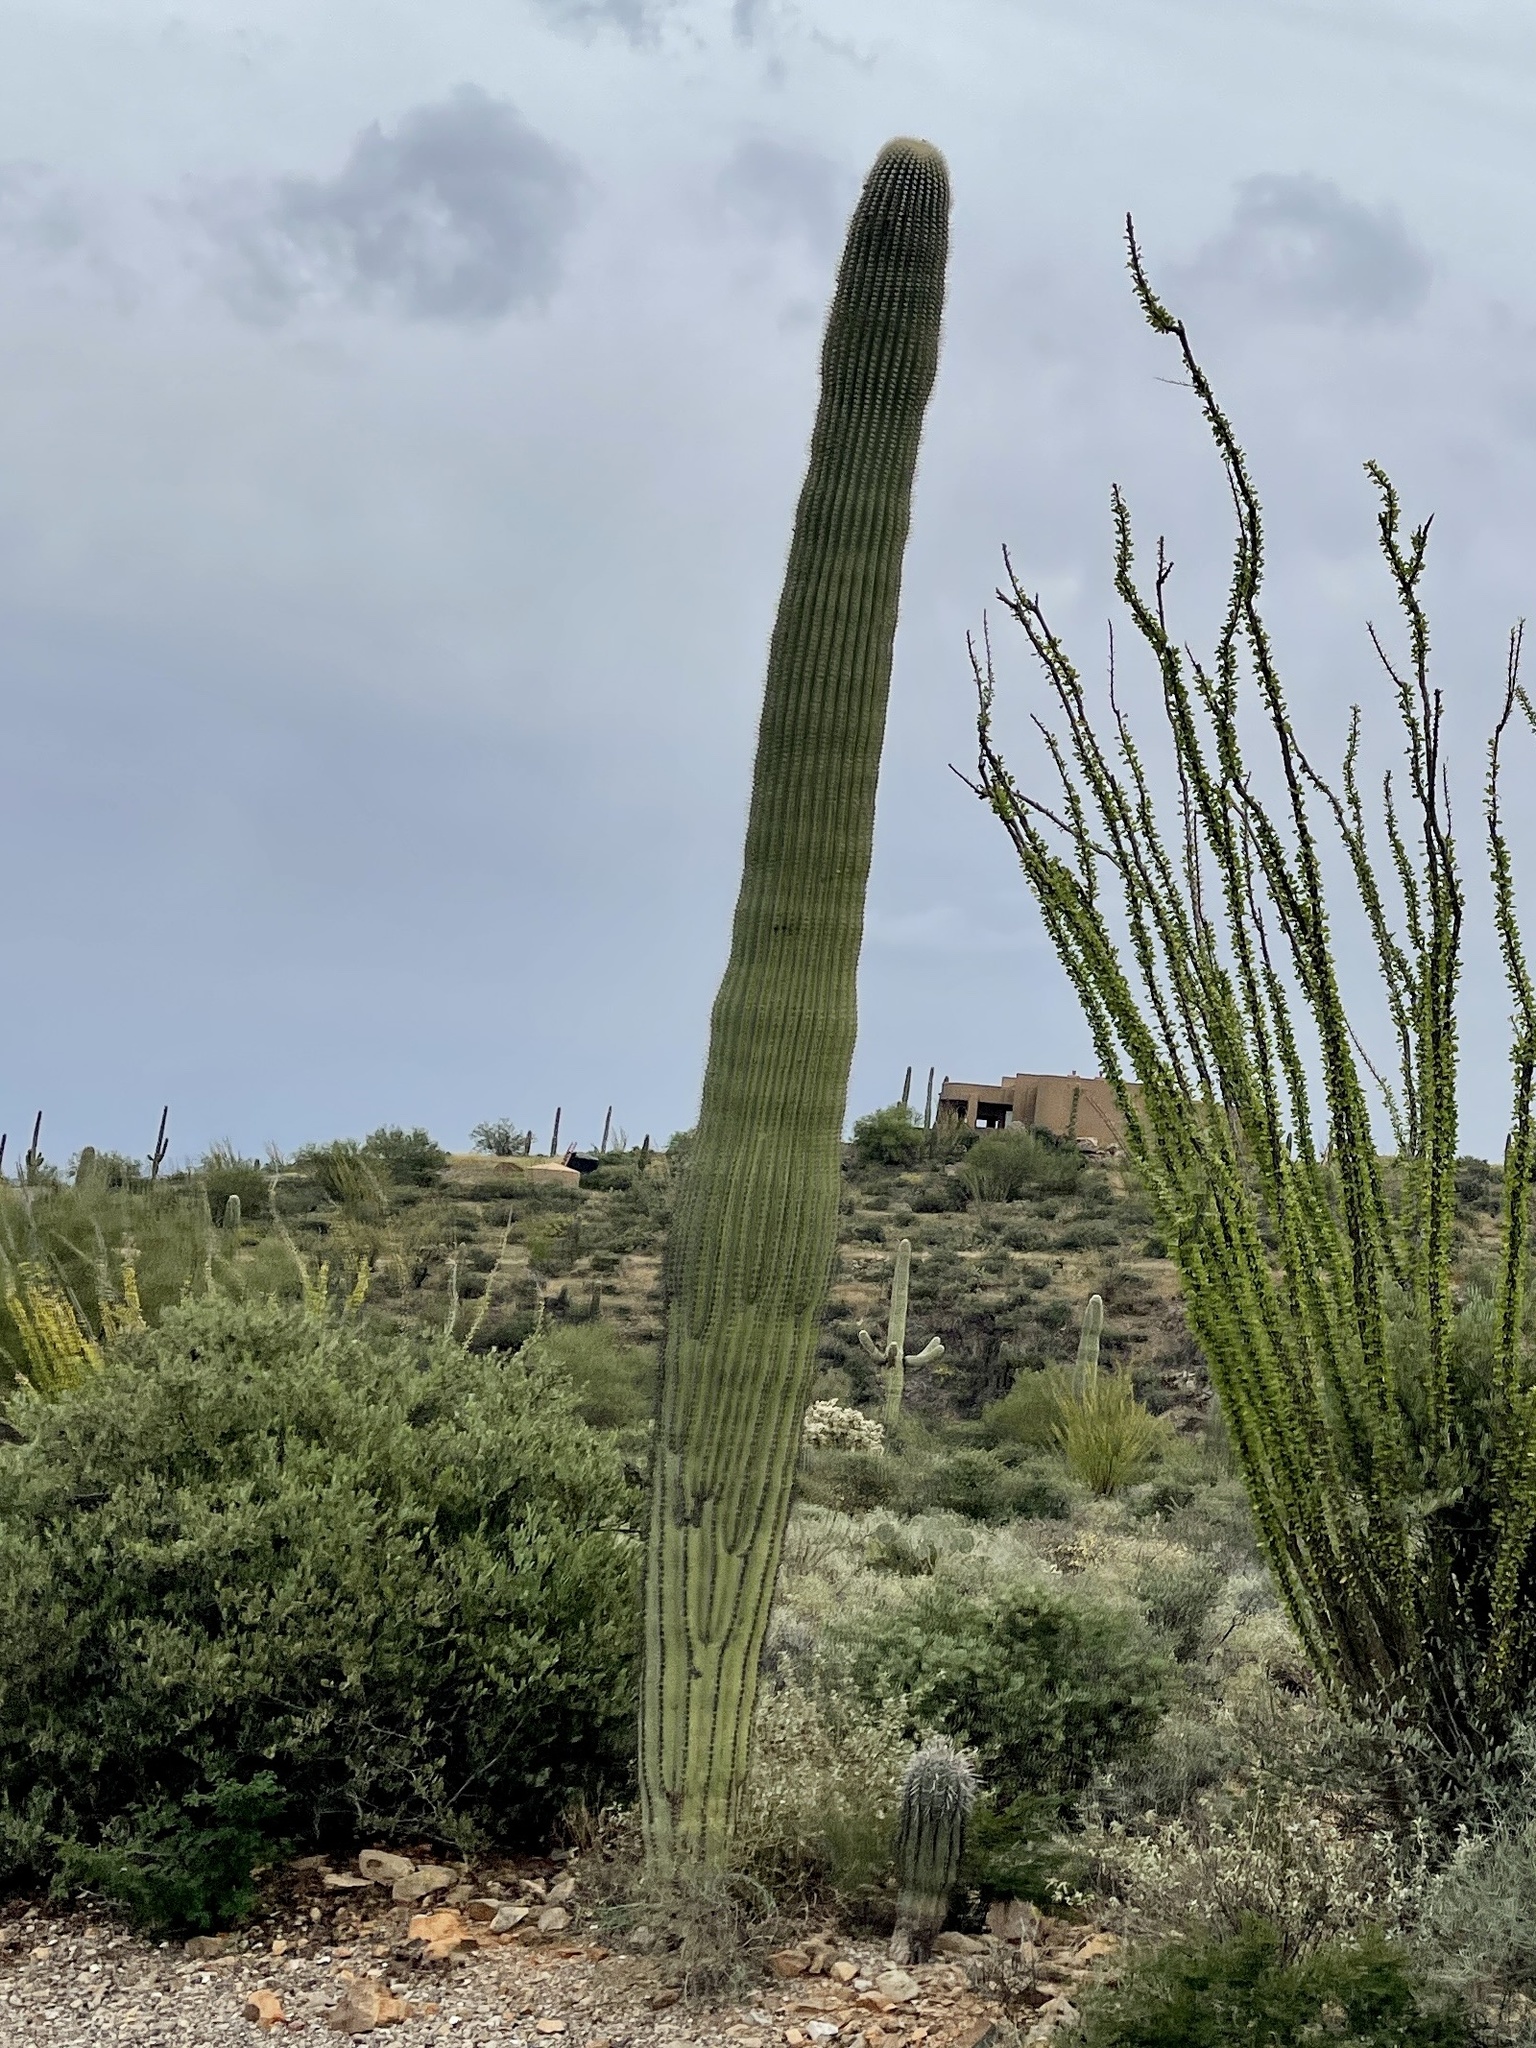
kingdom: Plantae
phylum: Tracheophyta
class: Magnoliopsida
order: Caryophyllales
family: Cactaceae
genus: Carnegiea
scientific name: Carnegiea gigantea
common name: Saguaro
